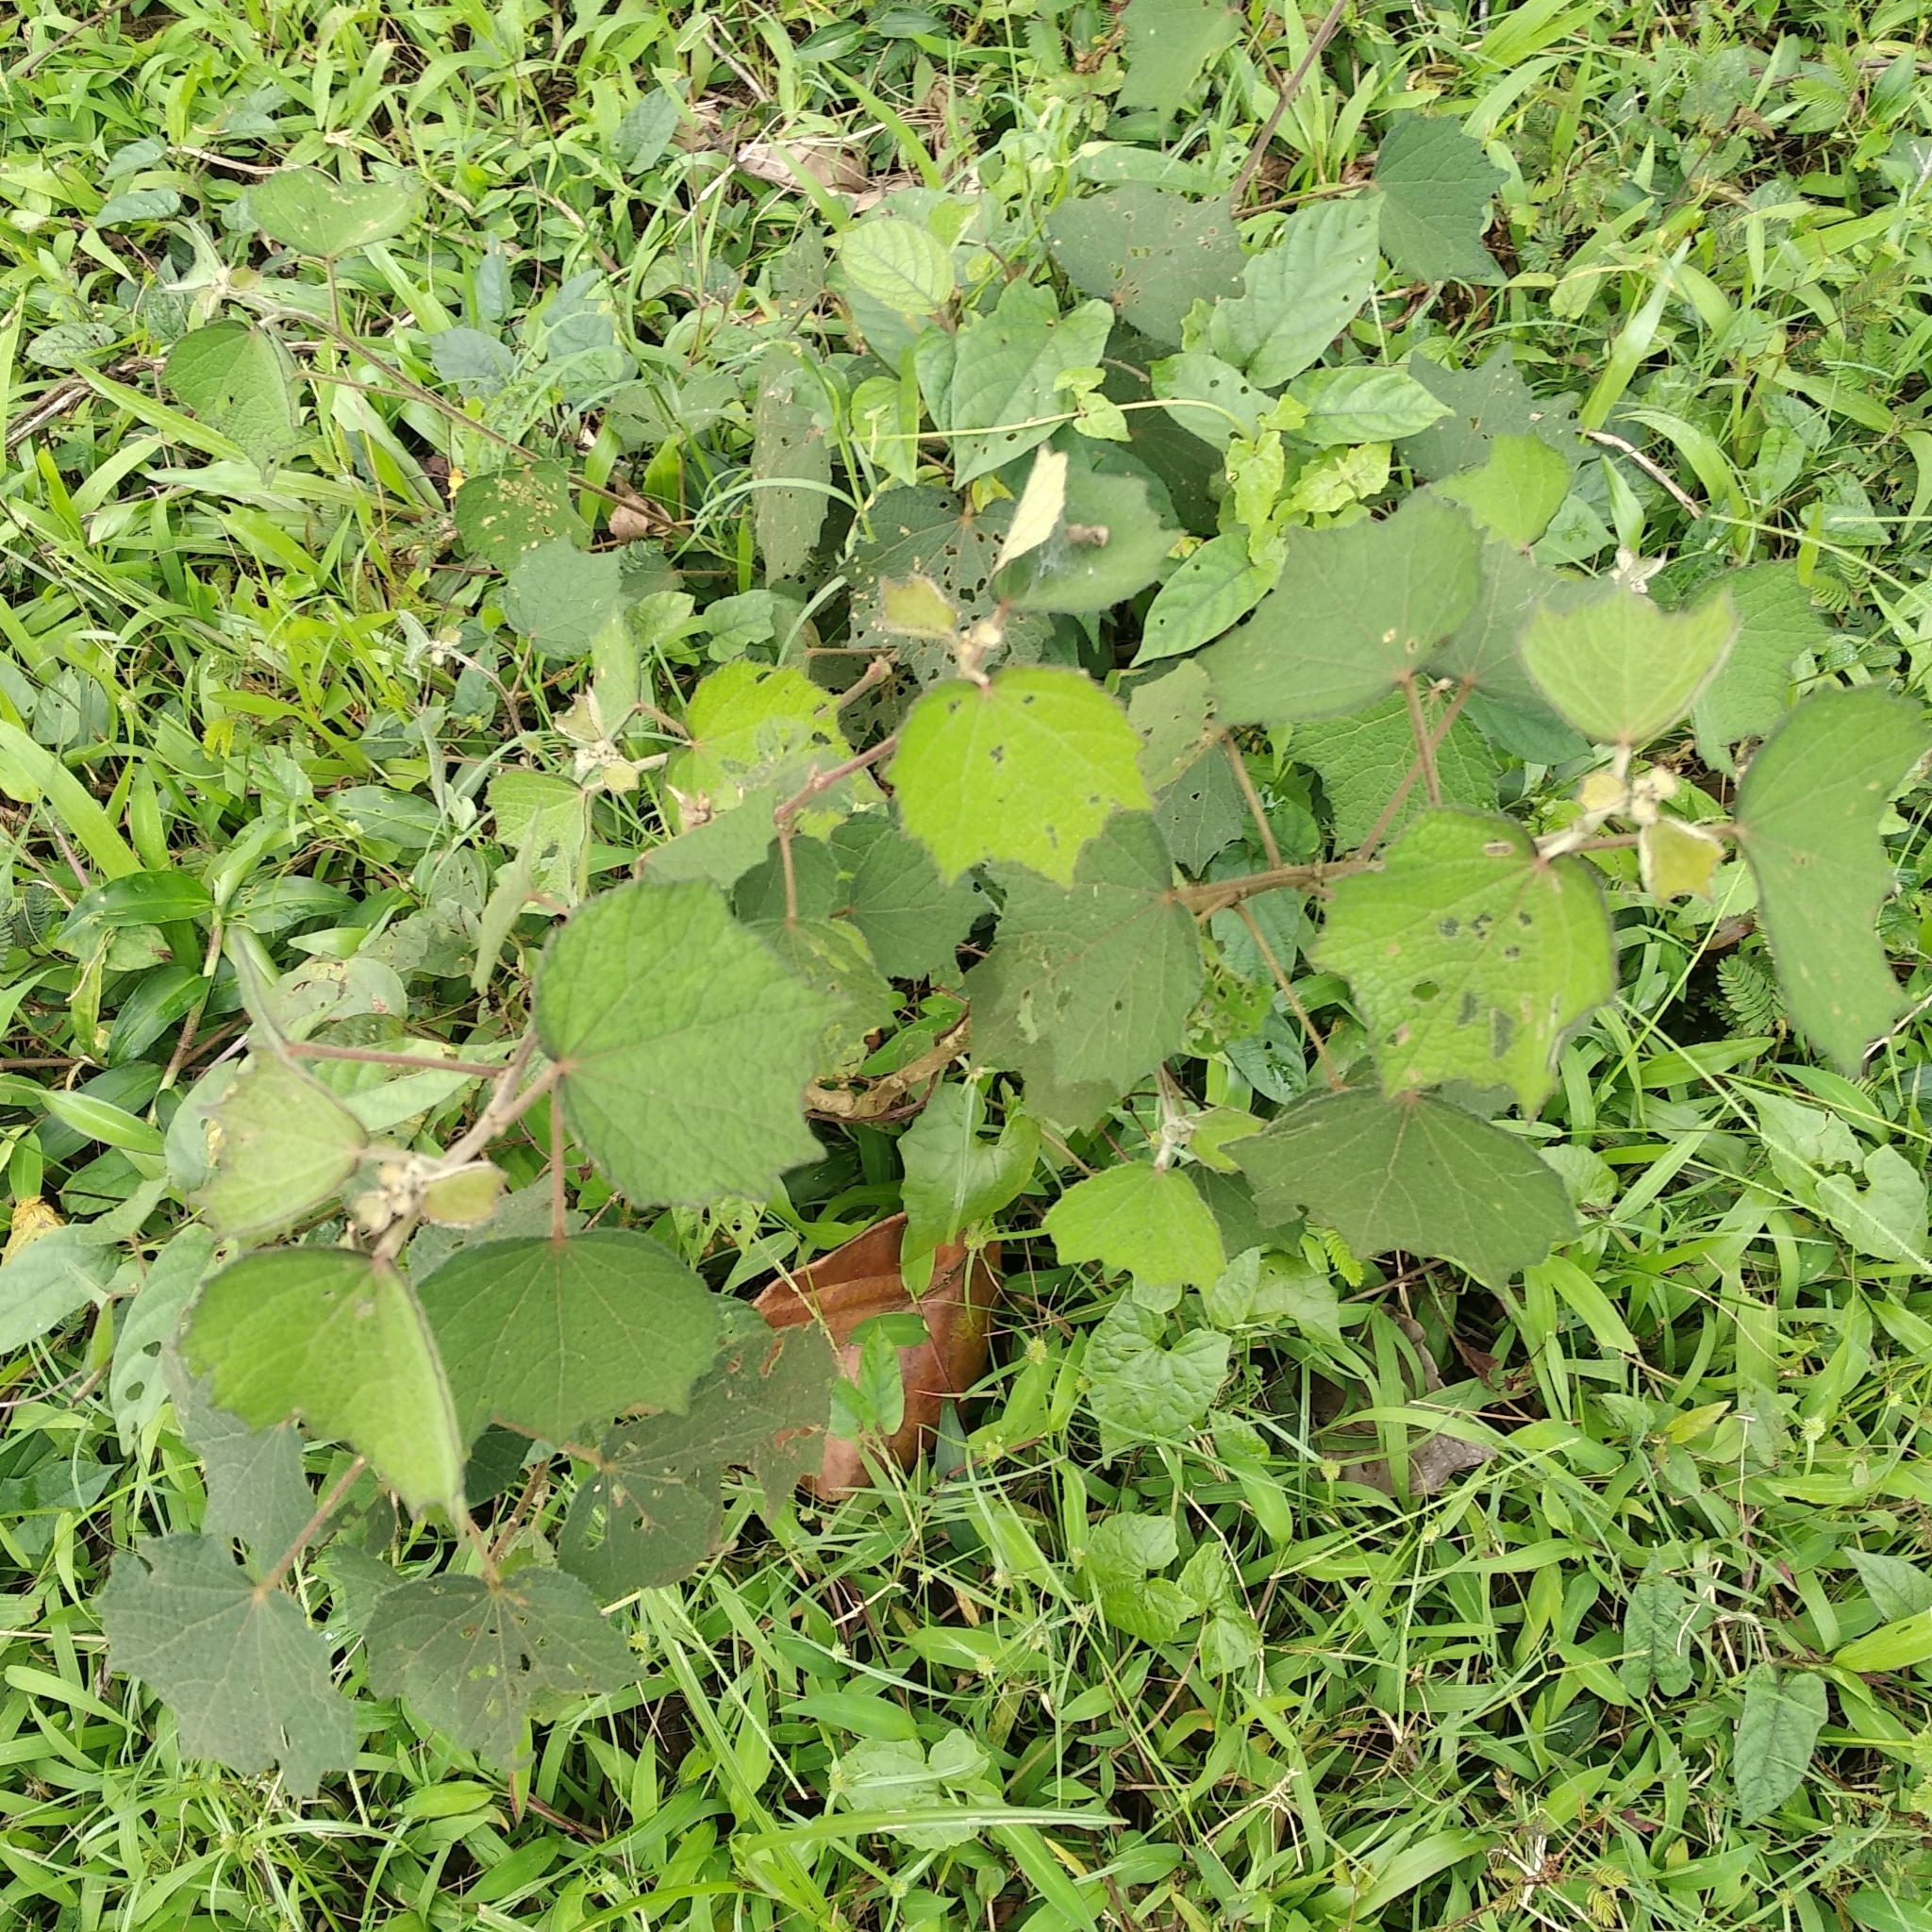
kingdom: Plantae
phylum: Tracheophyta
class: Magnoliopsida
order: Malvales
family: Malvaceae
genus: Urena
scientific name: Urena lobata
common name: Caesarweed
